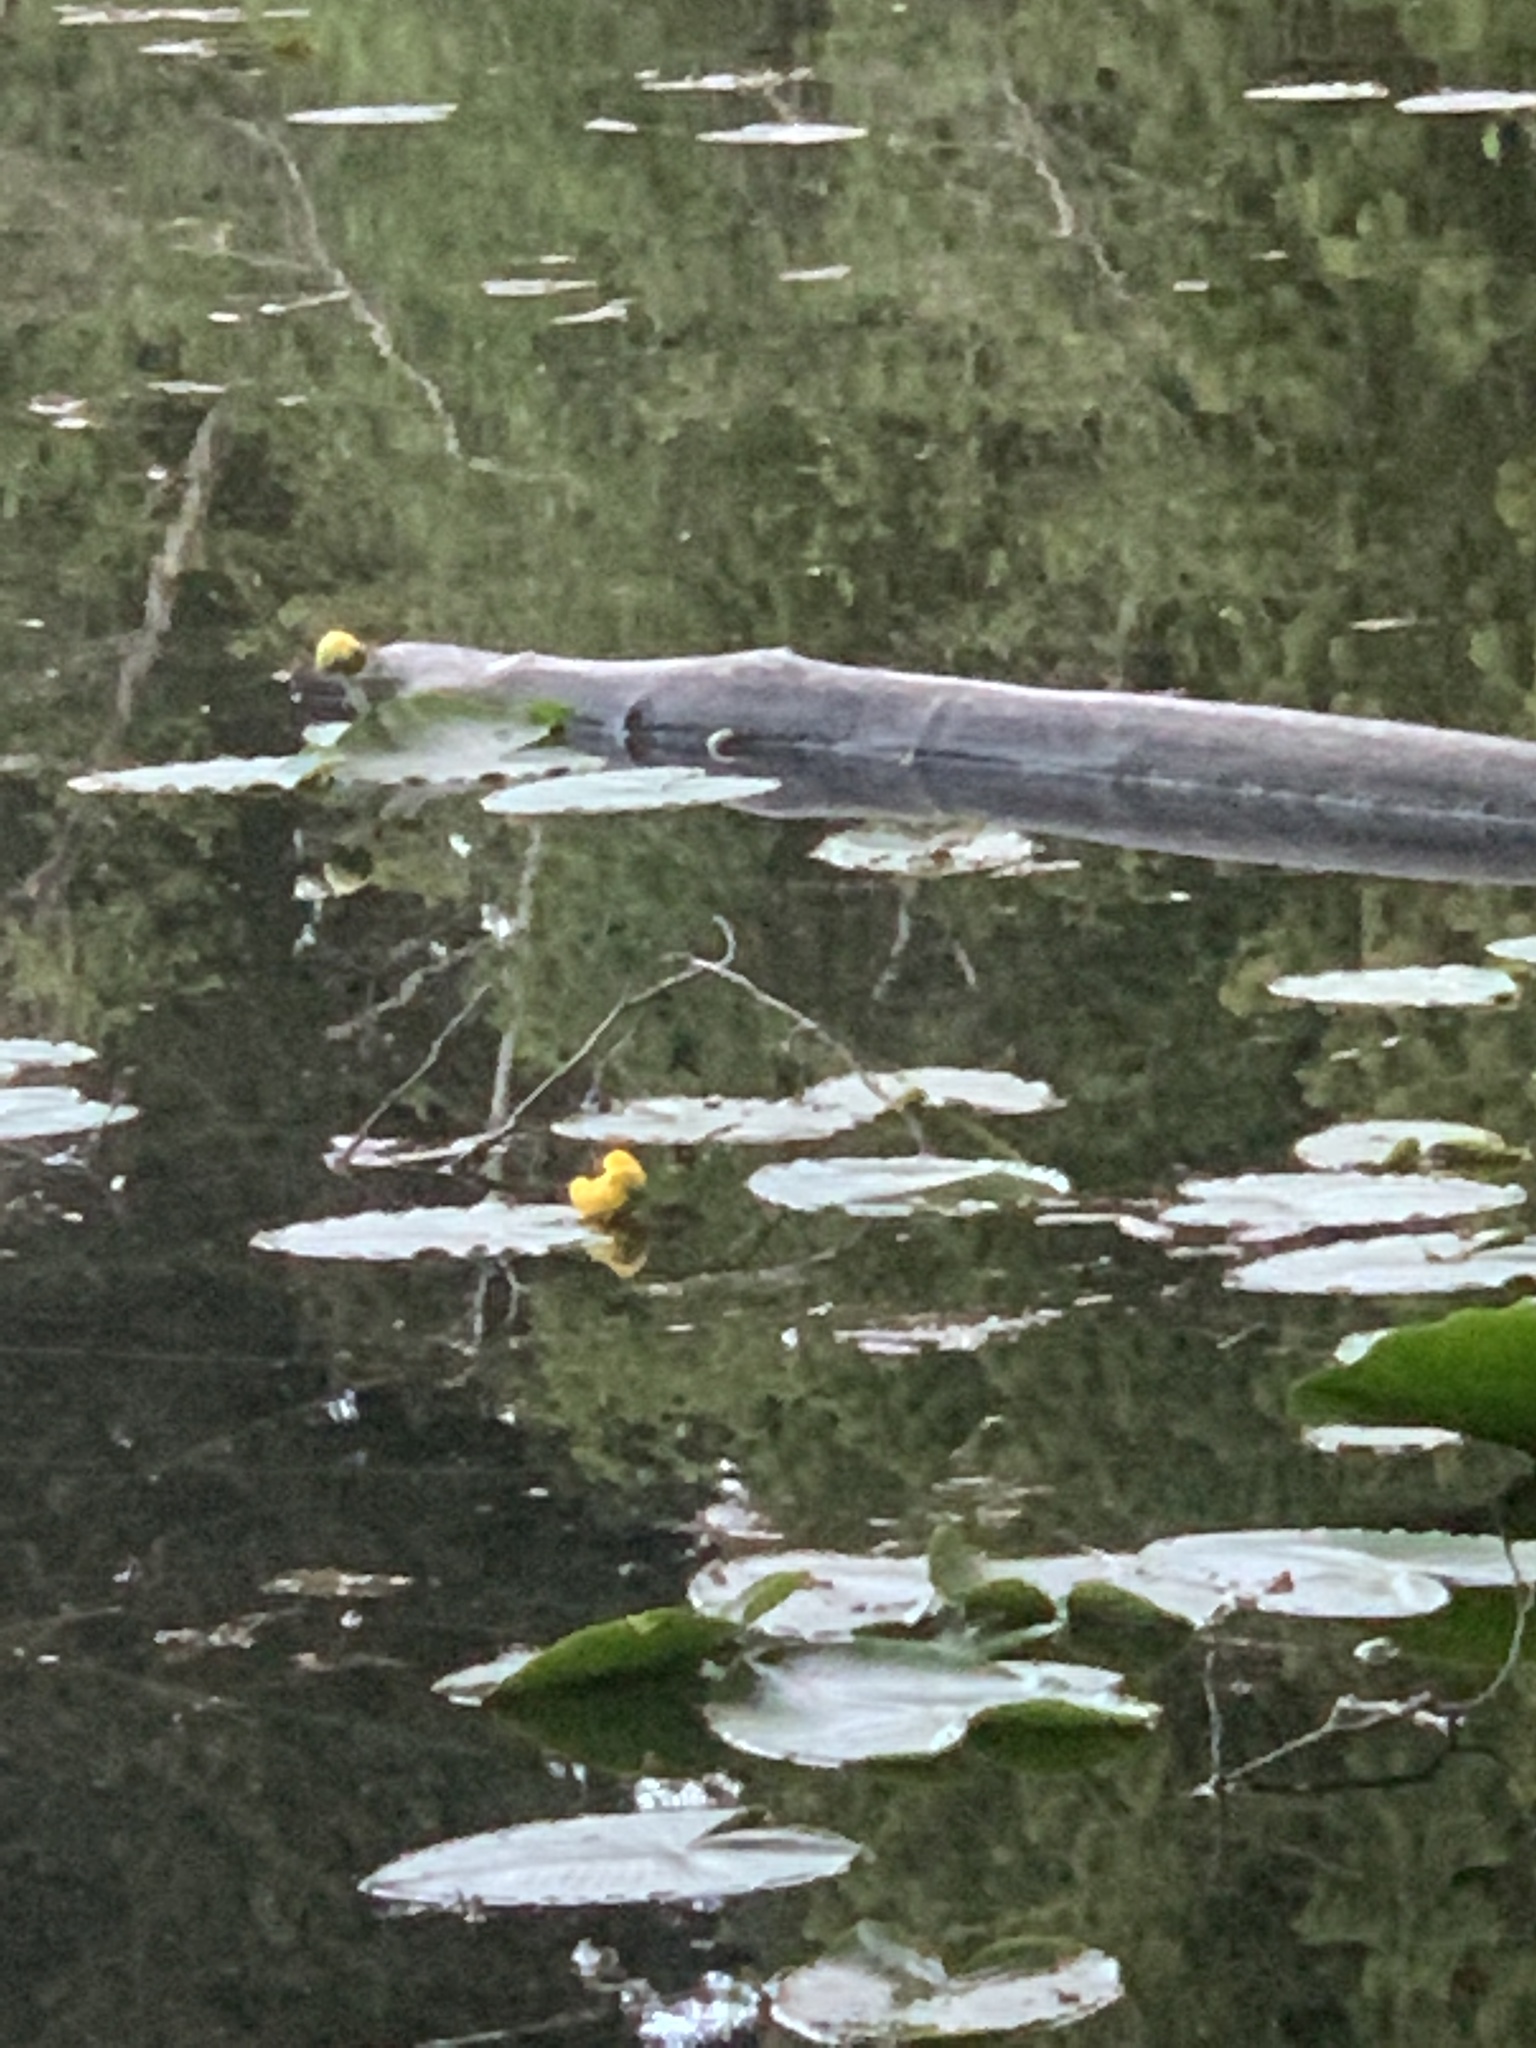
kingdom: Plantae
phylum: Tracheophyta
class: Magnoliopsida
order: Nymphaeales
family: Nymphaeaceae
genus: Nuphar
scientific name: Nuphar polysepala
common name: Rocky mountain cow-lily
